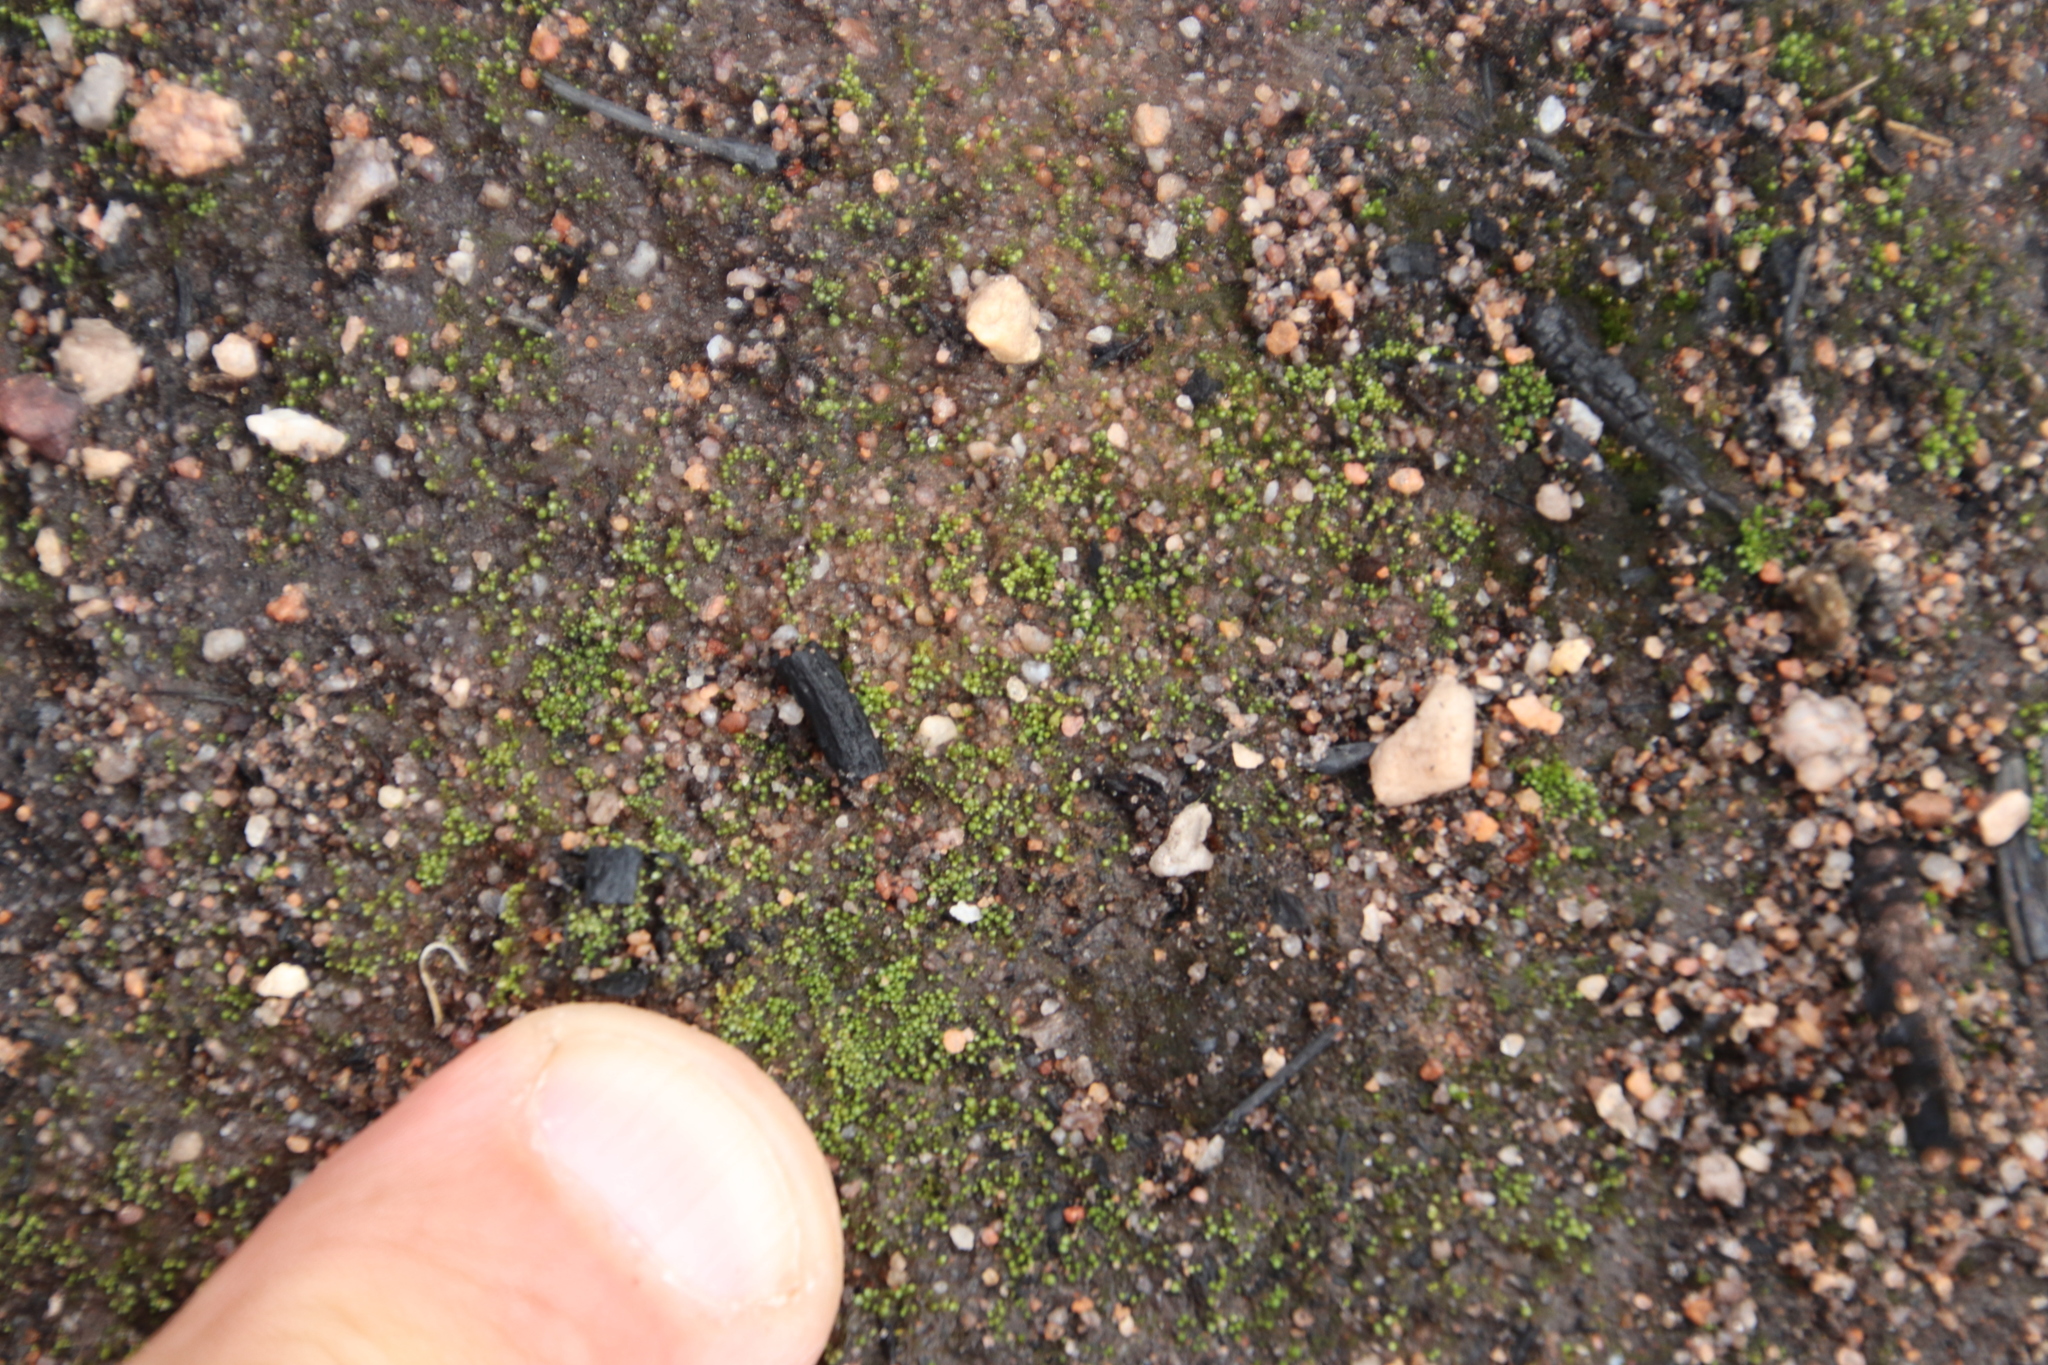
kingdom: Plantae
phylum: Bryophyta
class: Bryopsida
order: Bryales
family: Bryaceae
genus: Bryum
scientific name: Bryum argenteum
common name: Silver-moss
